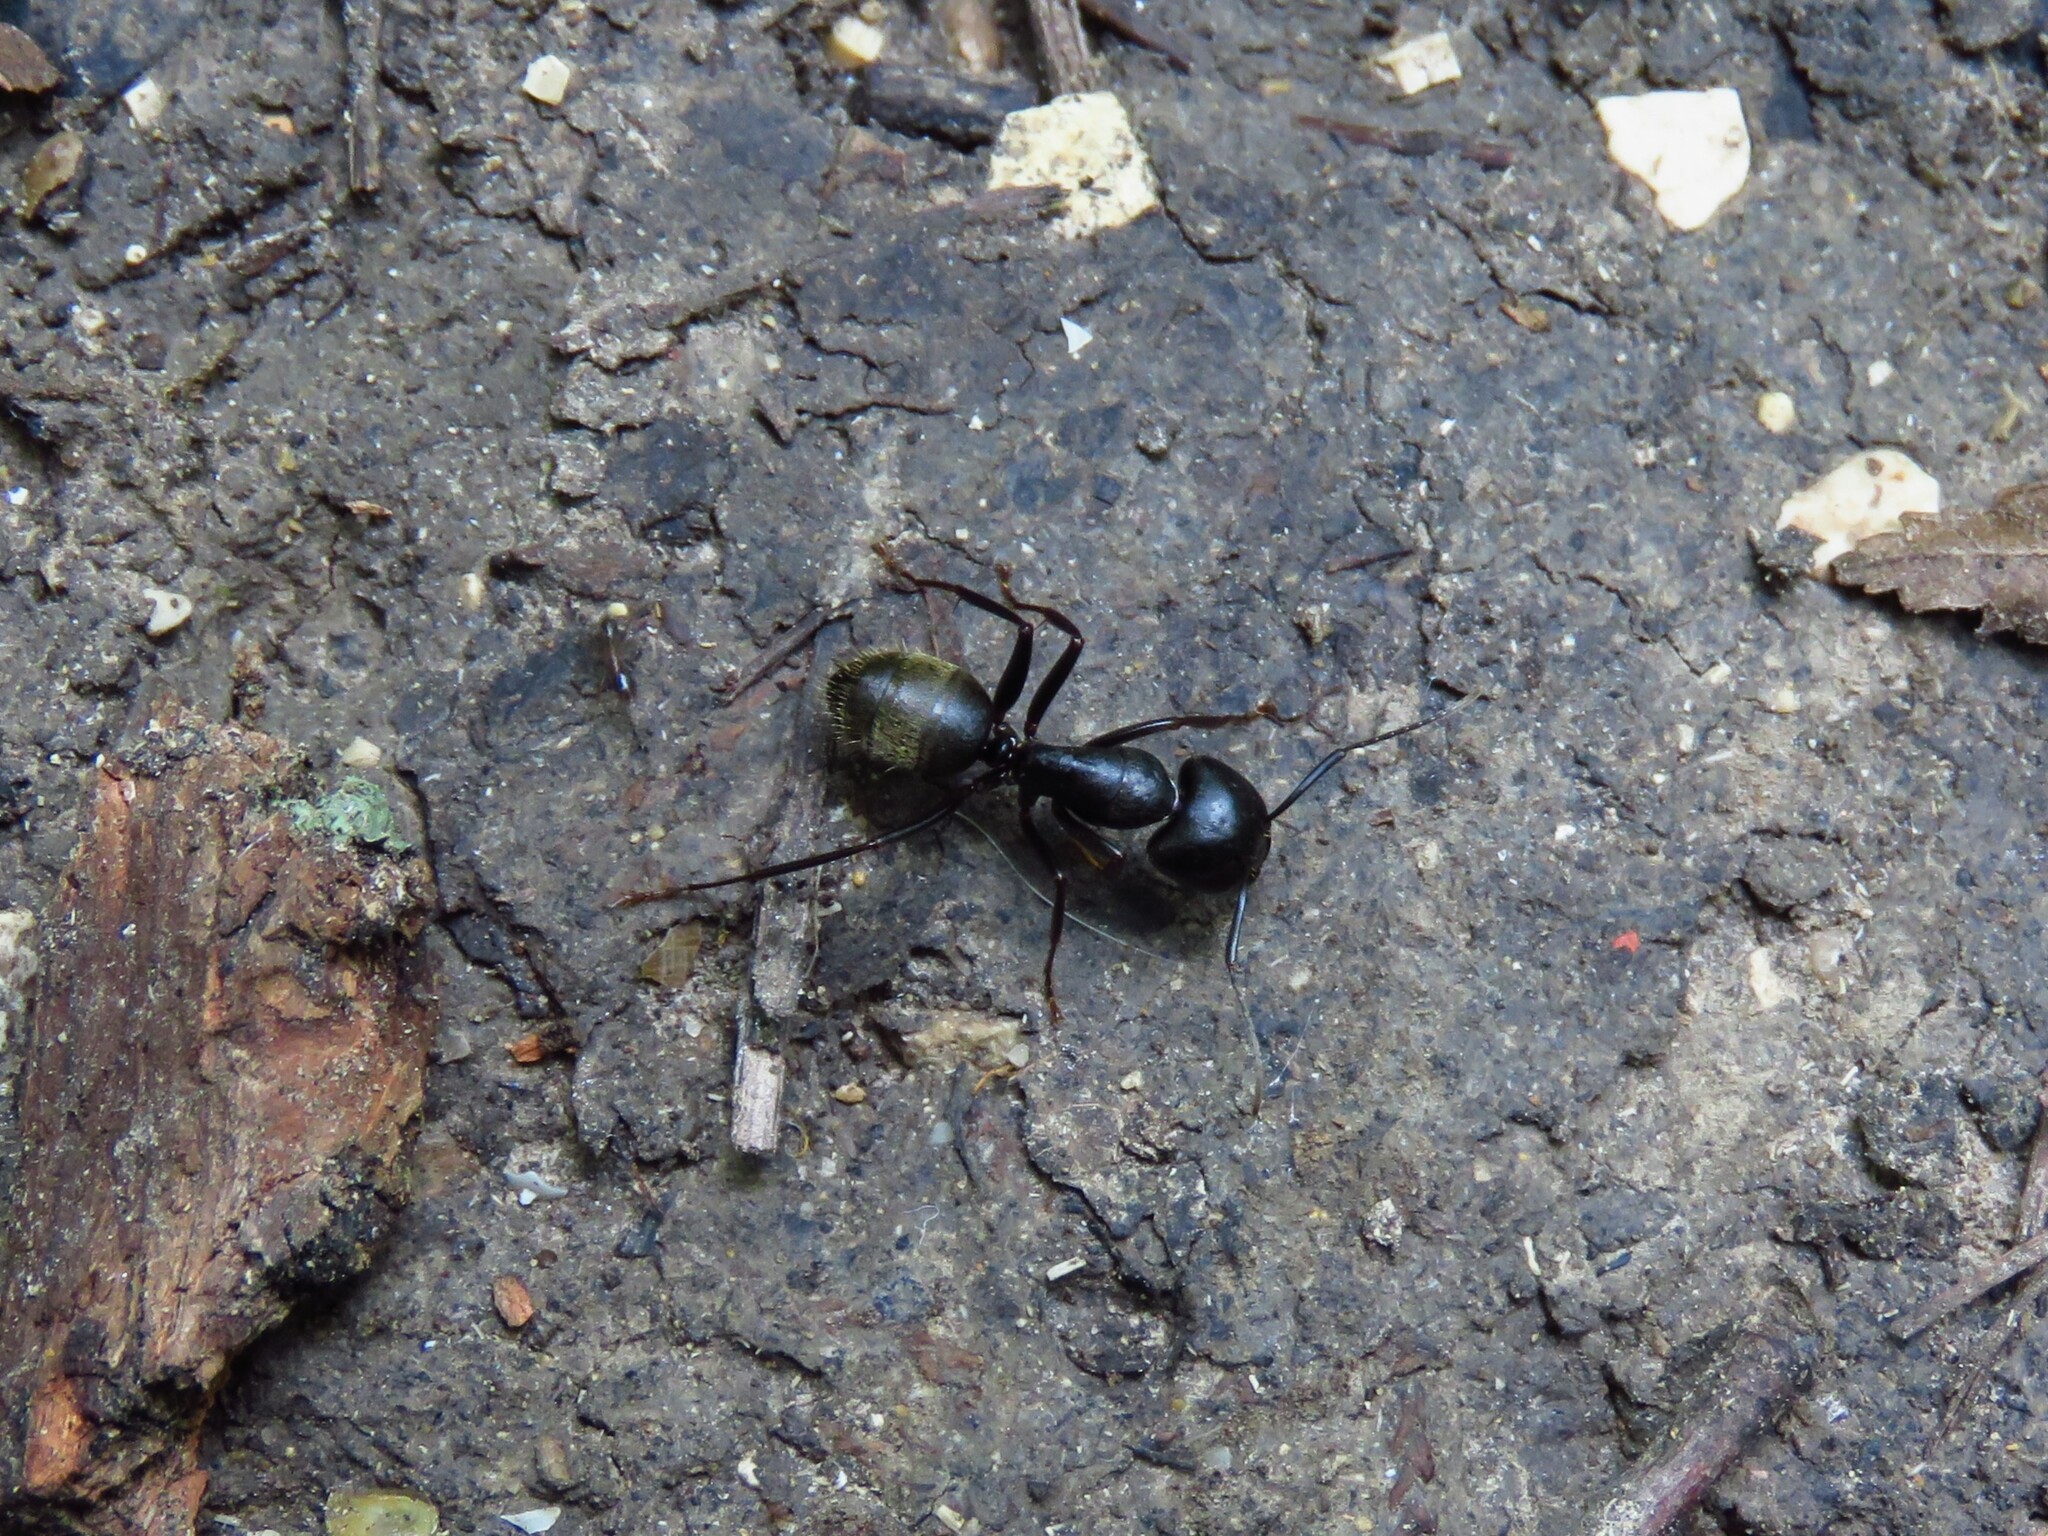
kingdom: Animalia
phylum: Arthropoda
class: Insecta
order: Hymenoptera
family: Formicidae
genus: Camponotus
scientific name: Camponotus pennsylvanicus
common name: Black carpenter ant
